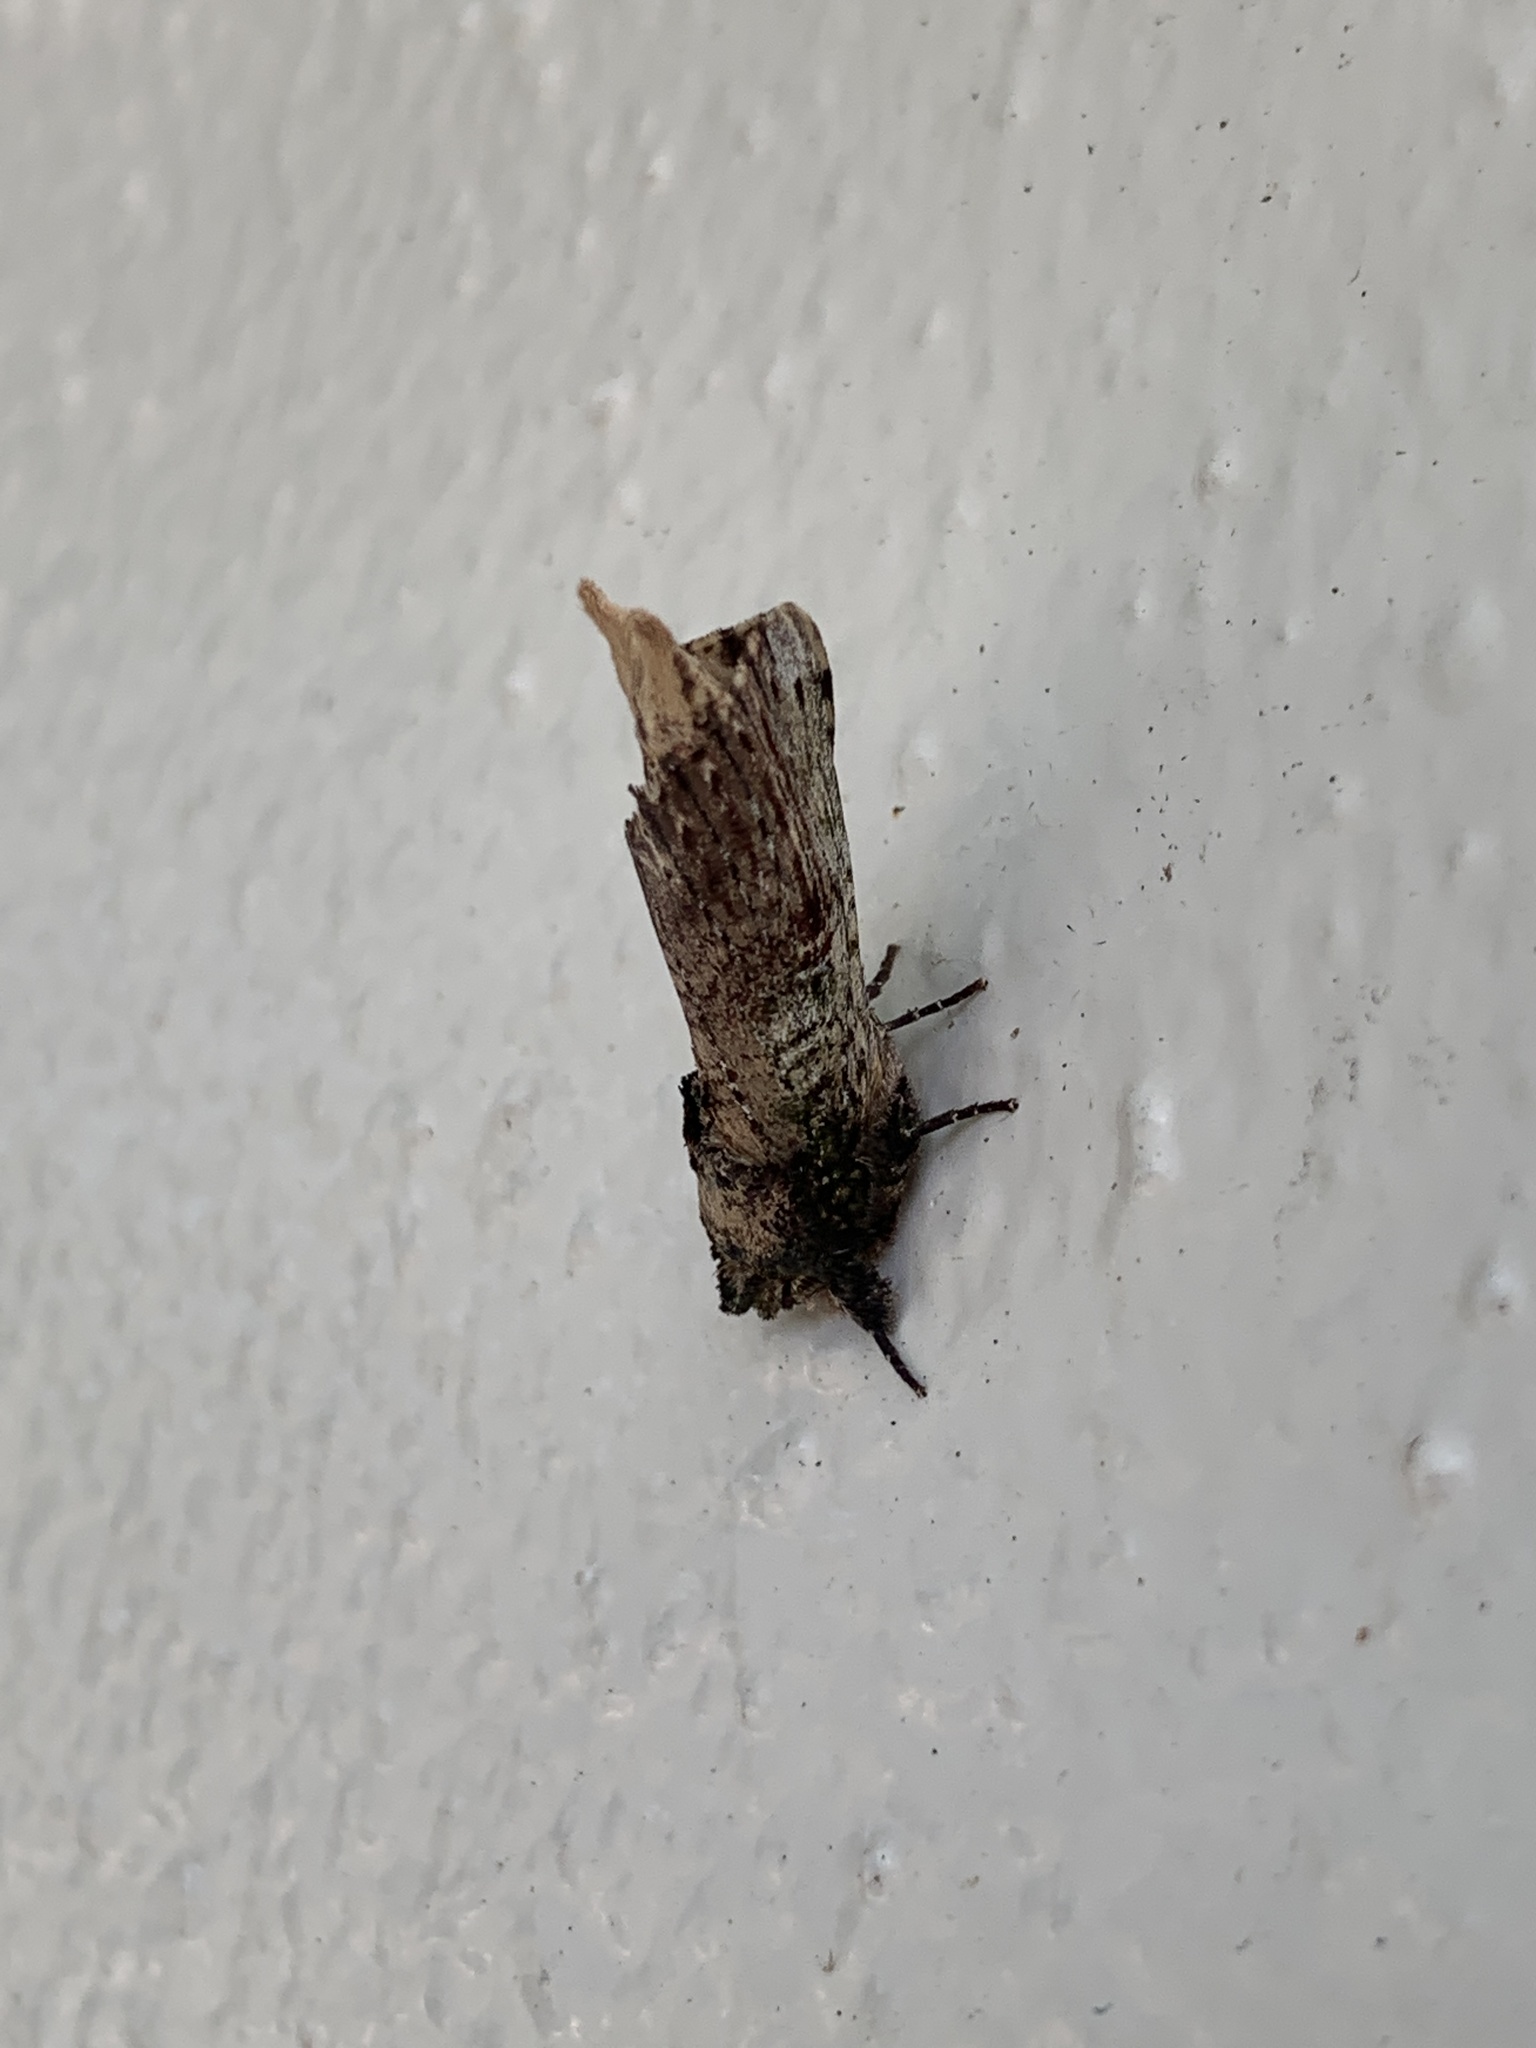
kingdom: Animalia
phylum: Arthropoda
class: Insecta
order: Lepidoptera
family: Notodontidae
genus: Schizura
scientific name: Schizura ipomaeae
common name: Morning-glory prominent
